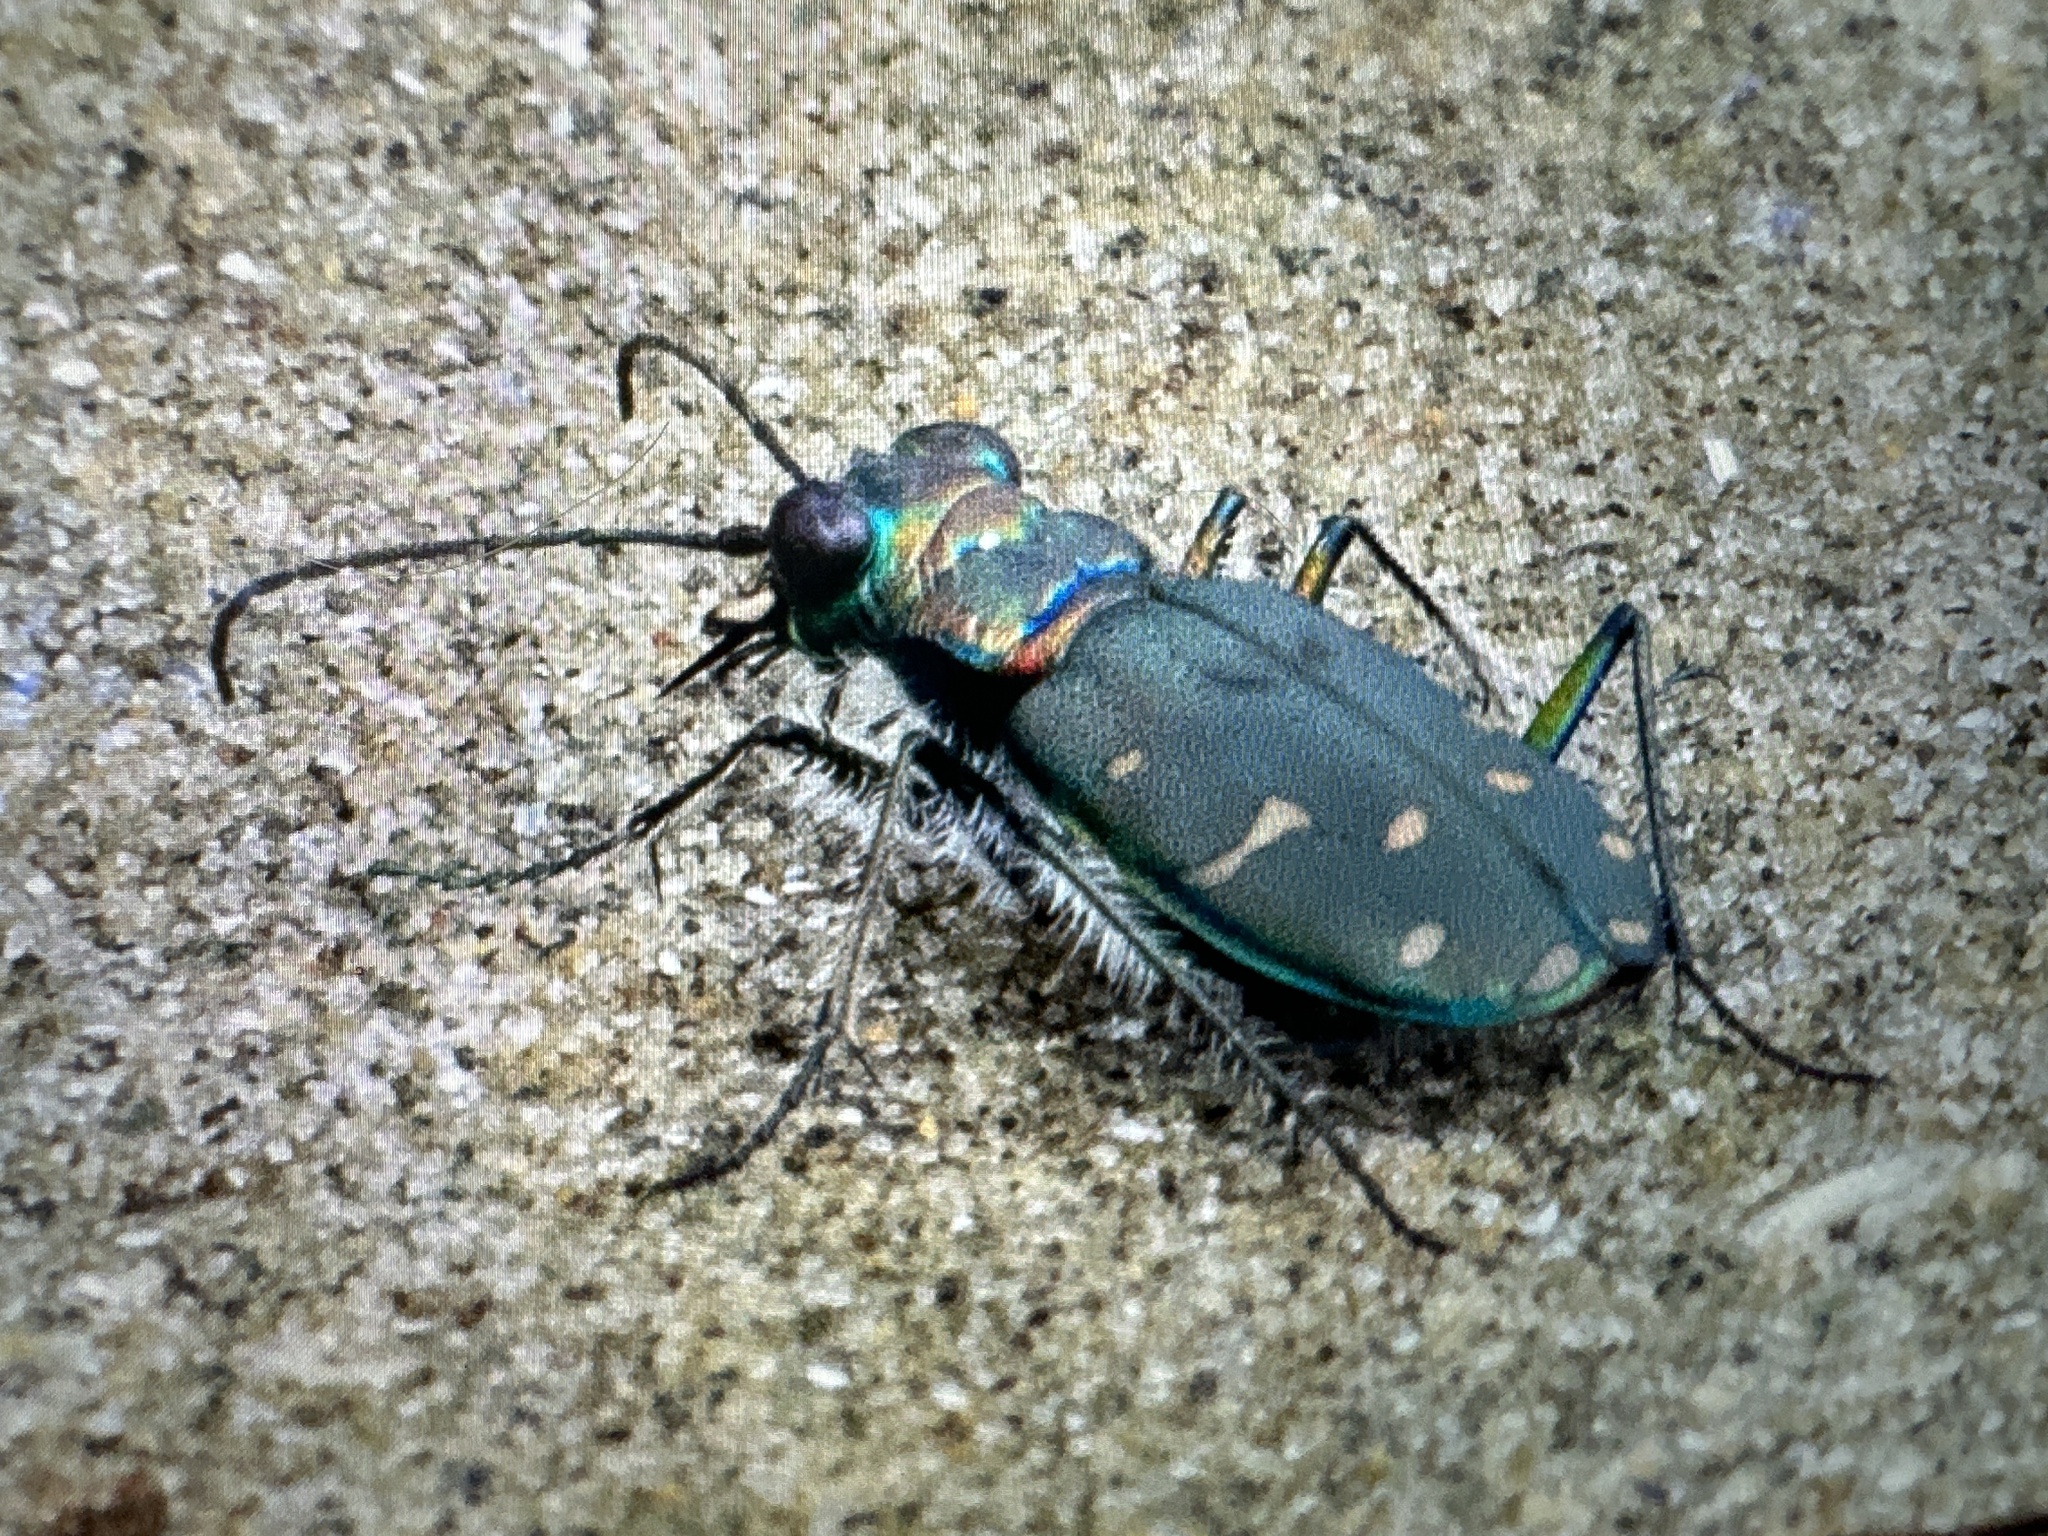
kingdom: Animalia
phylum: Arthropoda
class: Insecta
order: Coleoptera
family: Carabidae
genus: Cicindela
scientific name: Cicindela oregona
